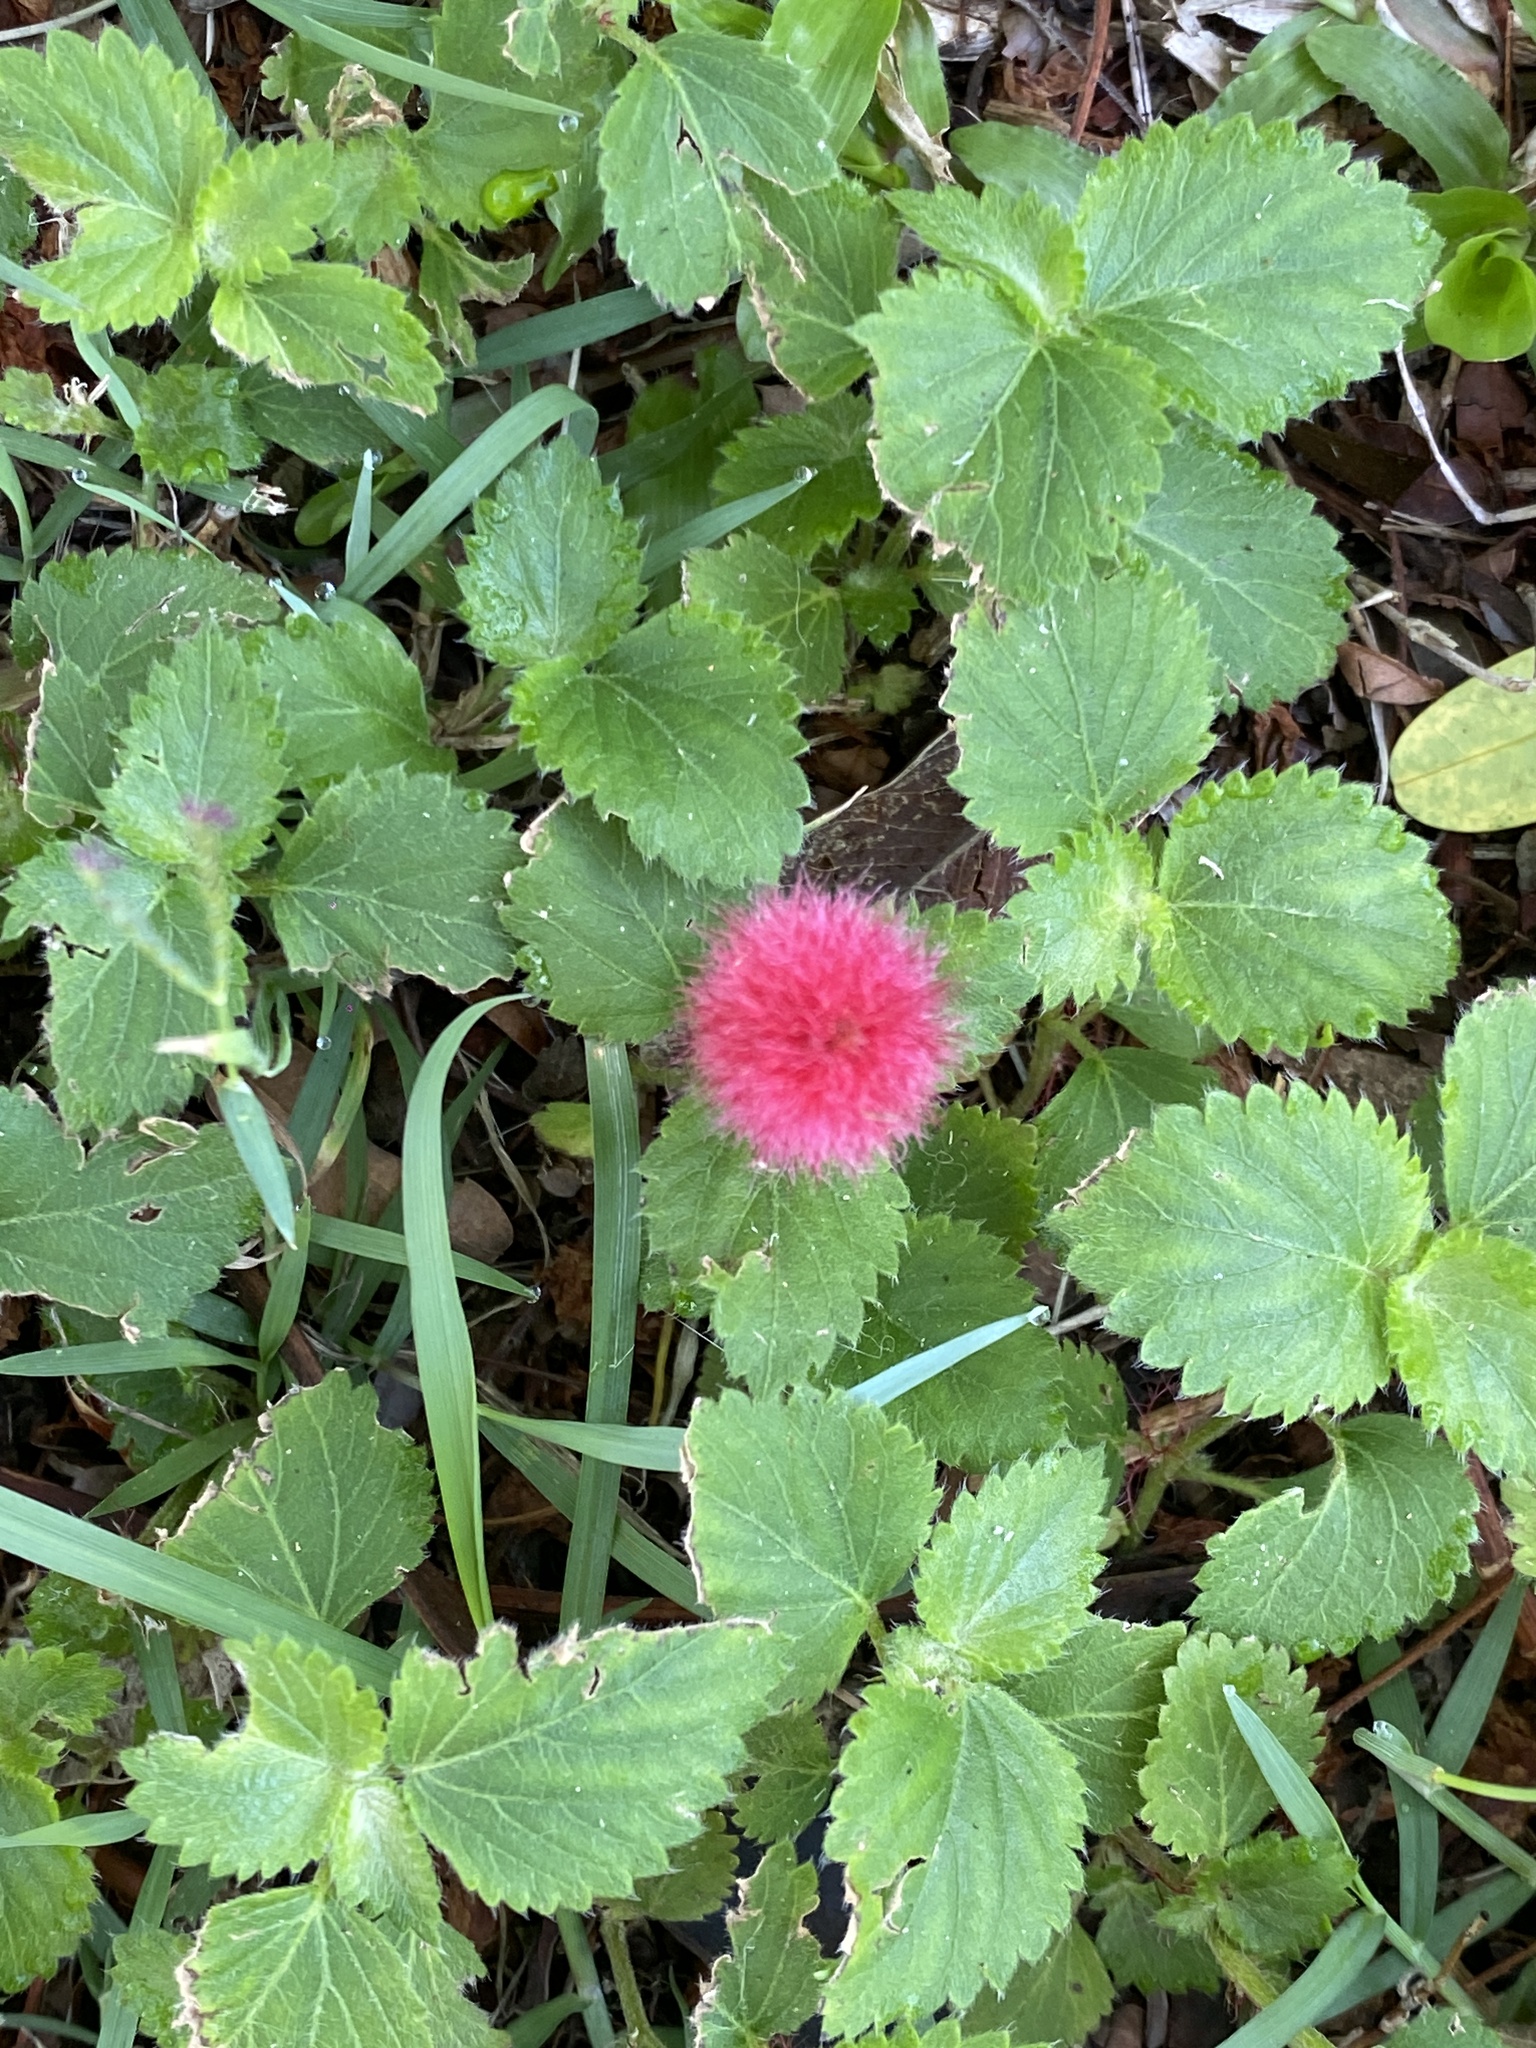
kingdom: Plantae
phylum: Tracheophyta
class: Magnoliopsida
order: Malpighiales
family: Euphorbiaceae
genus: Acalypha
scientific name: Acalypha pendula
